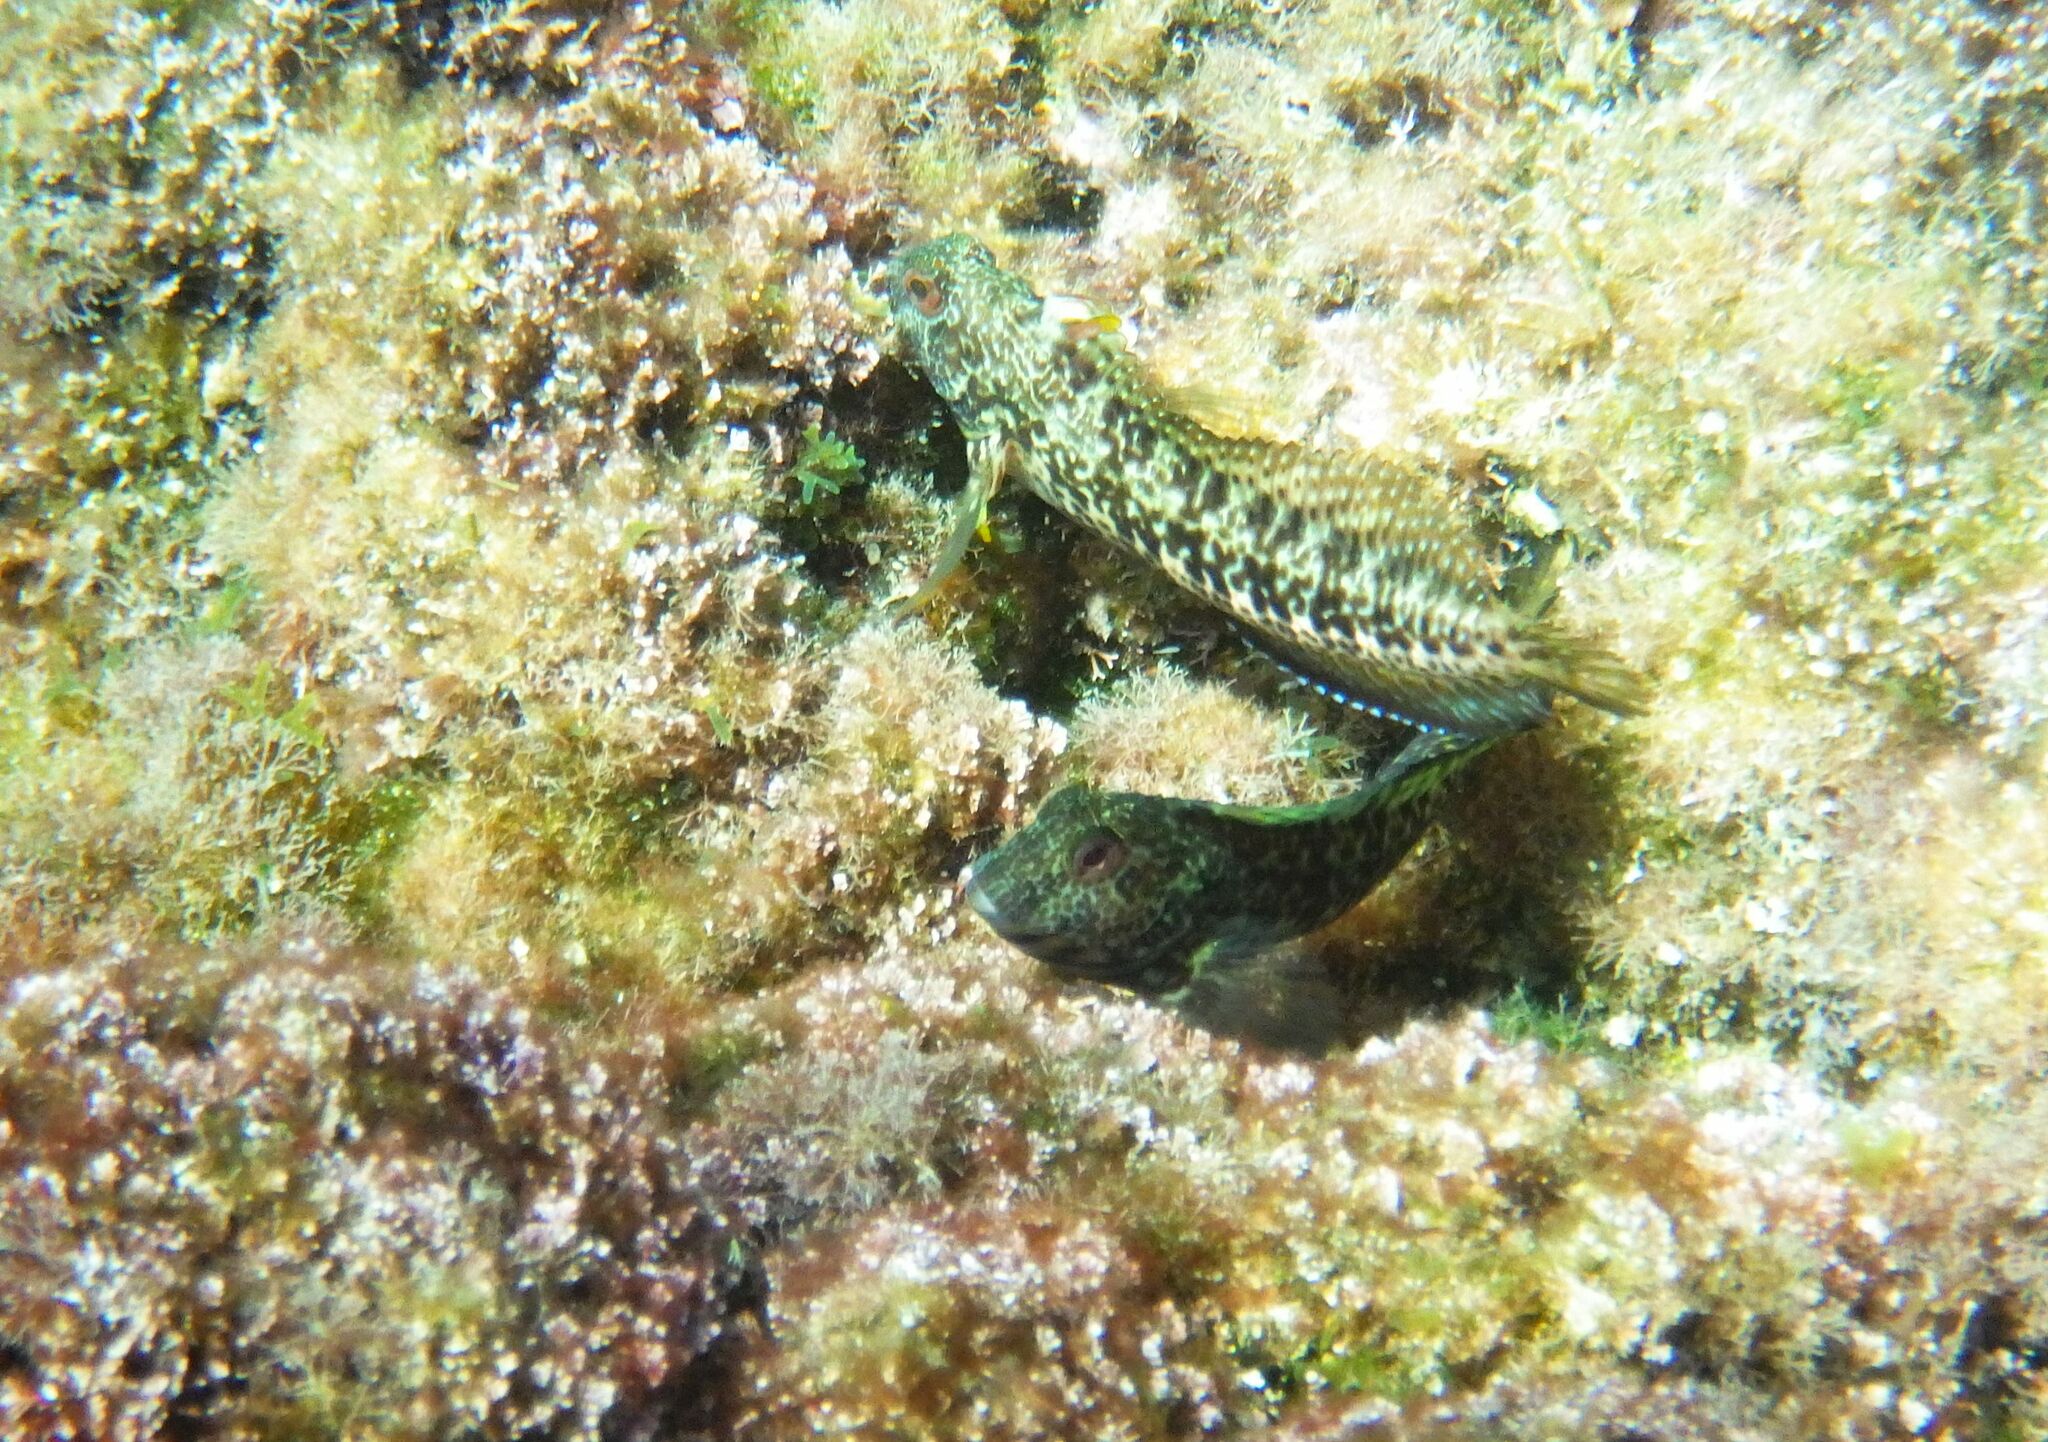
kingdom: Animalia
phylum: Chordata
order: Perciformes
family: Blenniidae
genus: Parablennius
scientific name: Parablennius pilicornis
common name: Ringneck blenny
